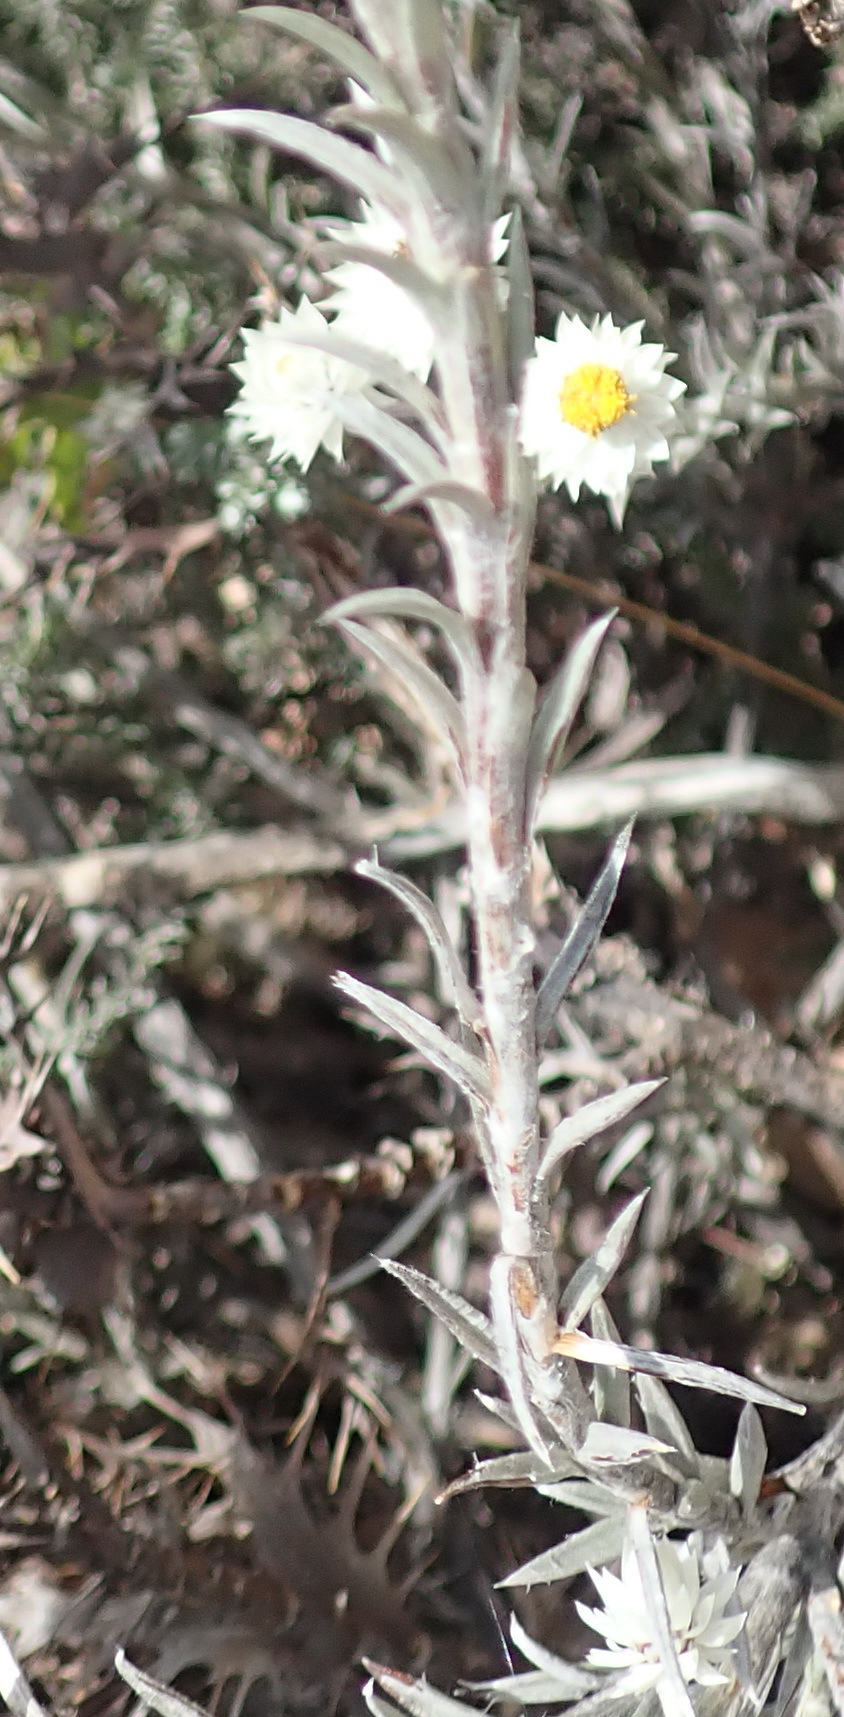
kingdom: Plantae
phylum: Tracheophyta
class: Magnoliopsida
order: Asterales
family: Asteraceae
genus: Achyranthemum
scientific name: Achyranthemum paniculatum
